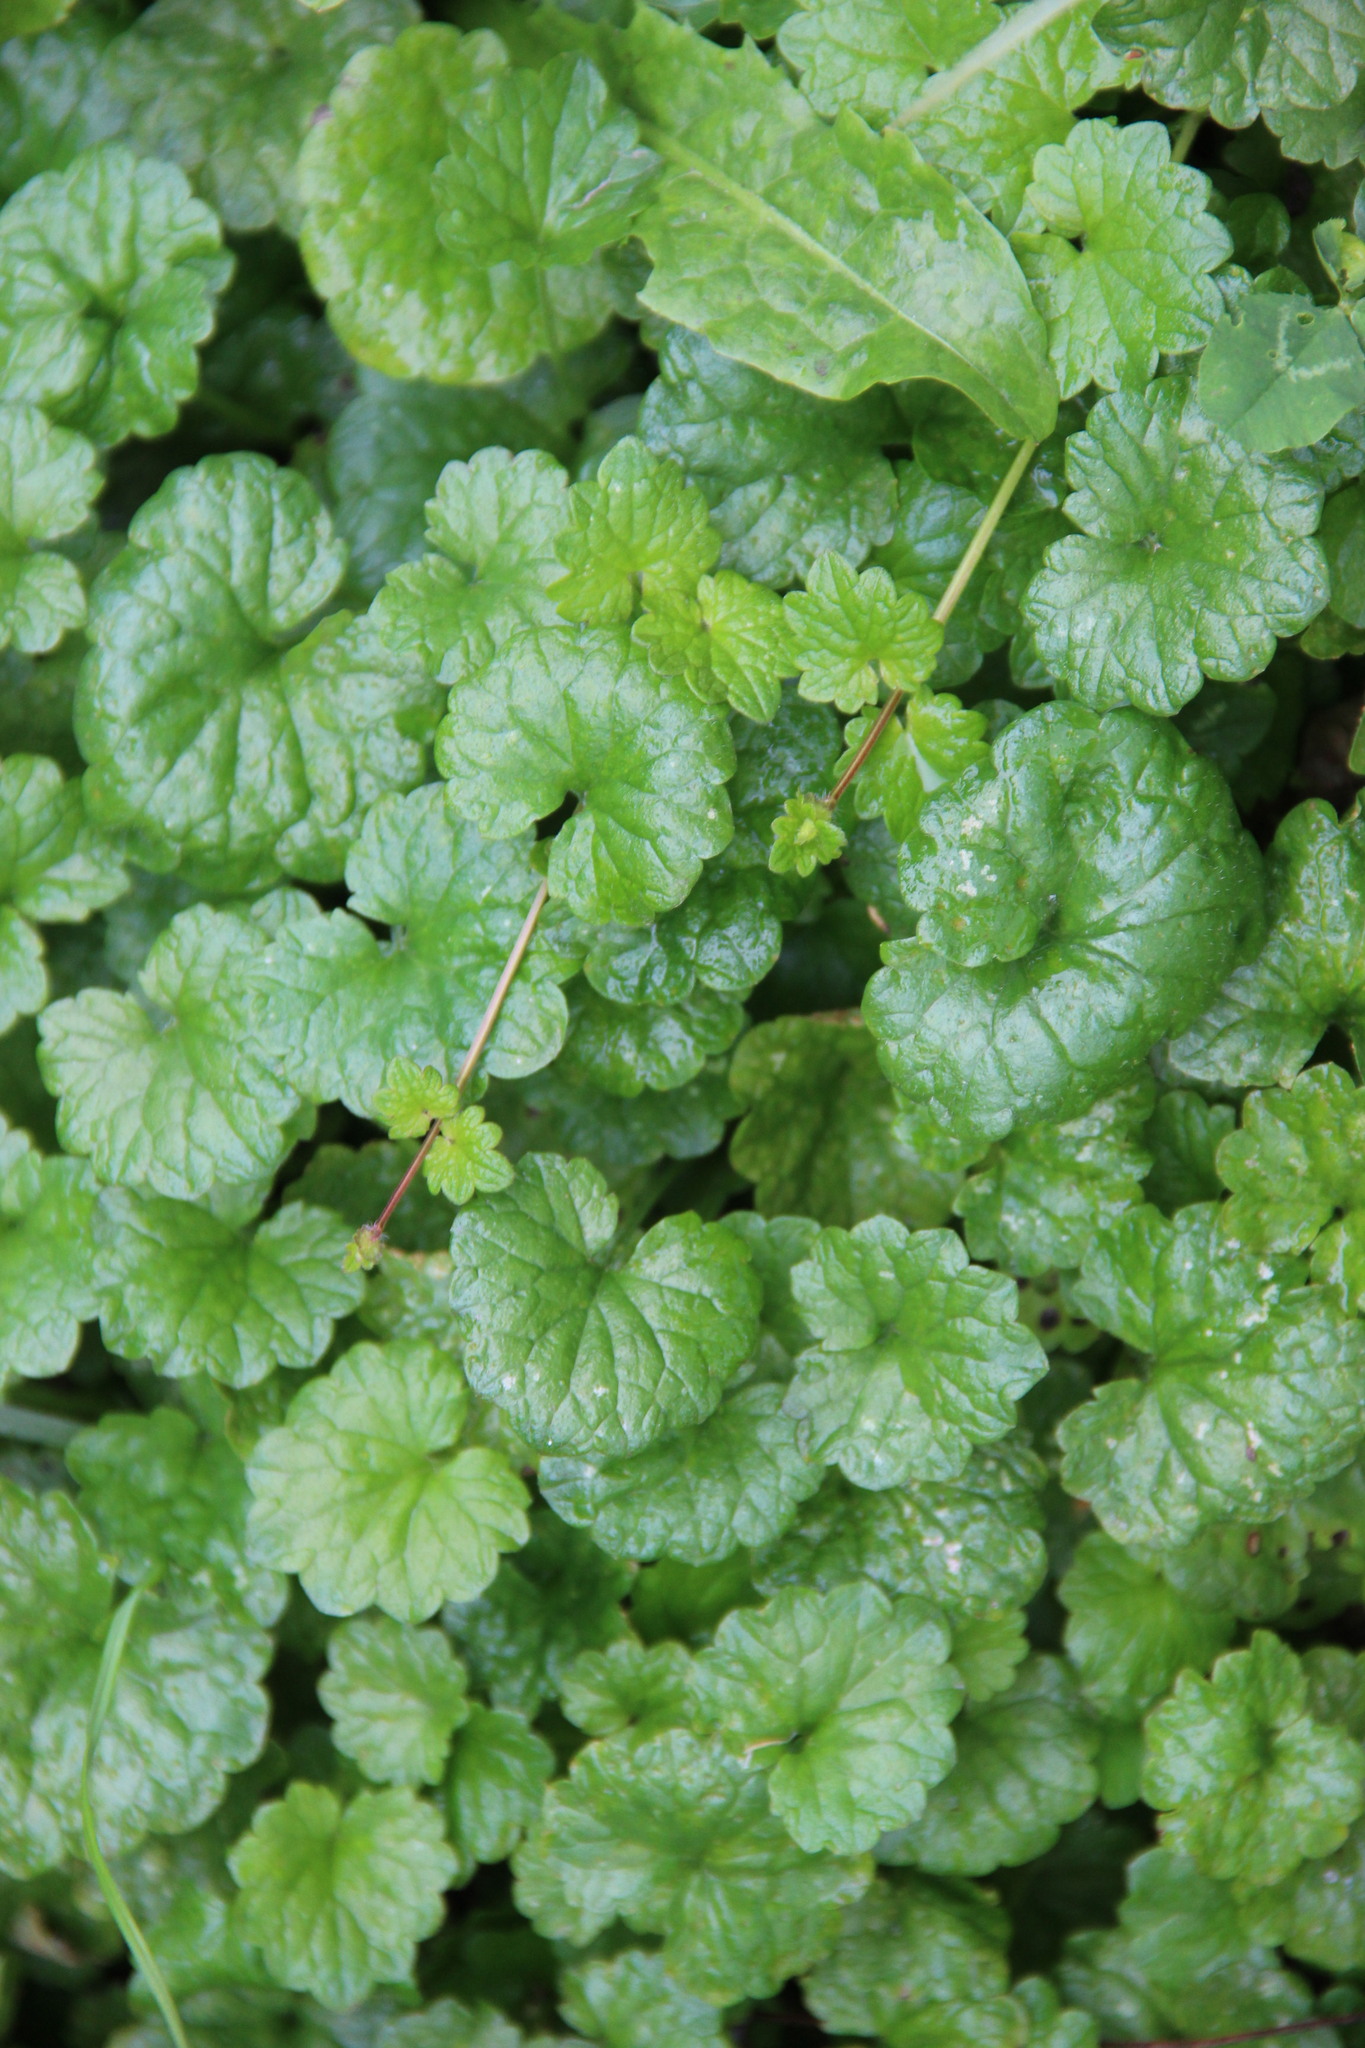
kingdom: Plantae
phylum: Tracheophyta
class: Magnoliopsida
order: Lamiales
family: Lamiaceae
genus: Glechoma
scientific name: Glechoma hederacea
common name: Ground ivy
